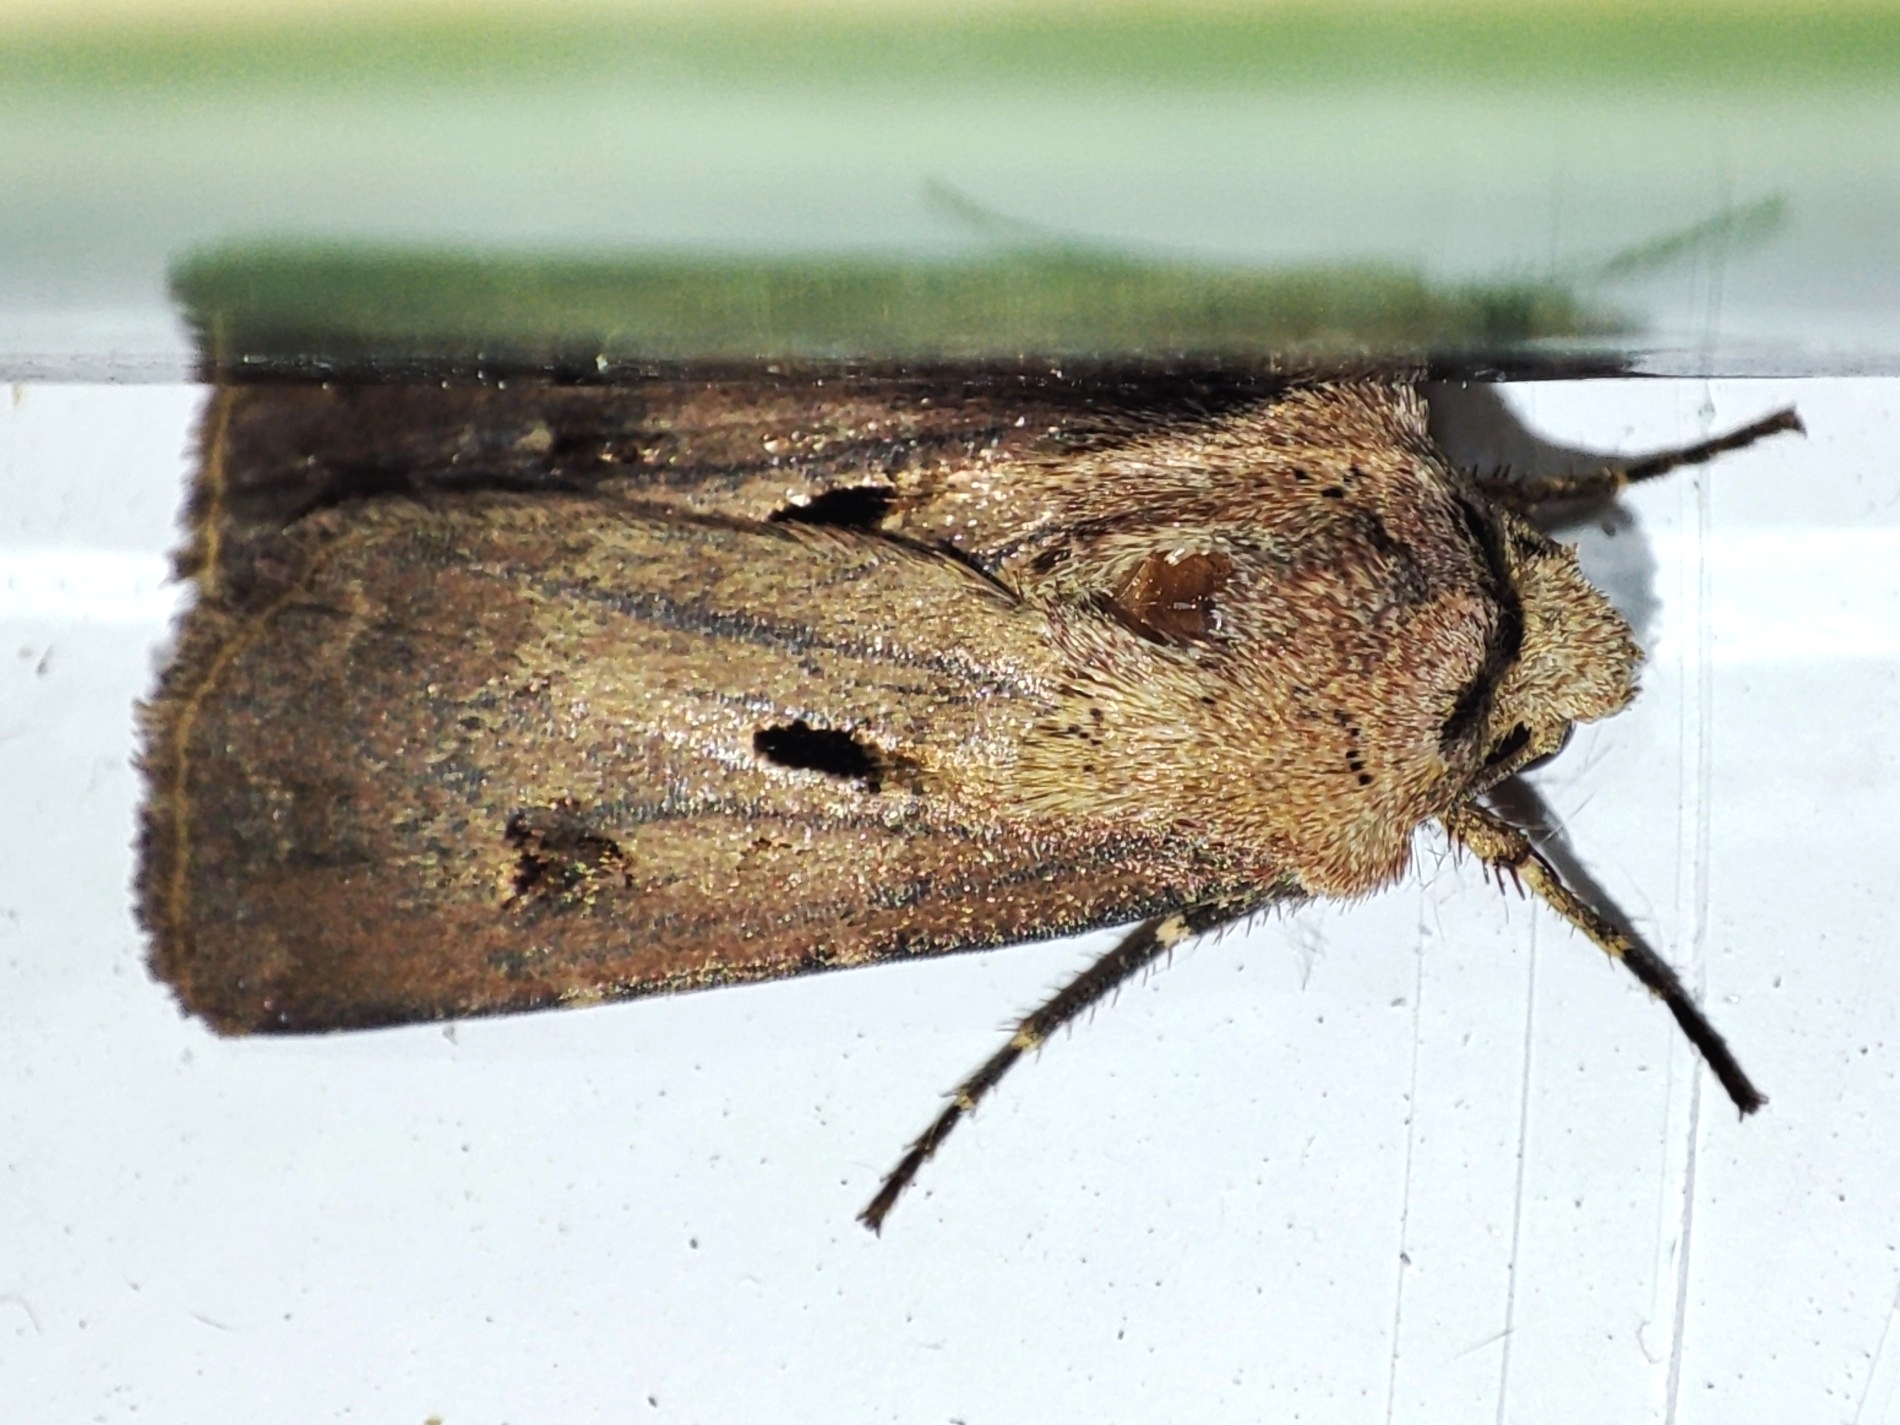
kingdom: Animalia
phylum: Arthropoda
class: Insecta
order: Lepidoptera
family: Noctuidae
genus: Agrotis
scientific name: Agrotis exclamationis
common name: Heart and dart
